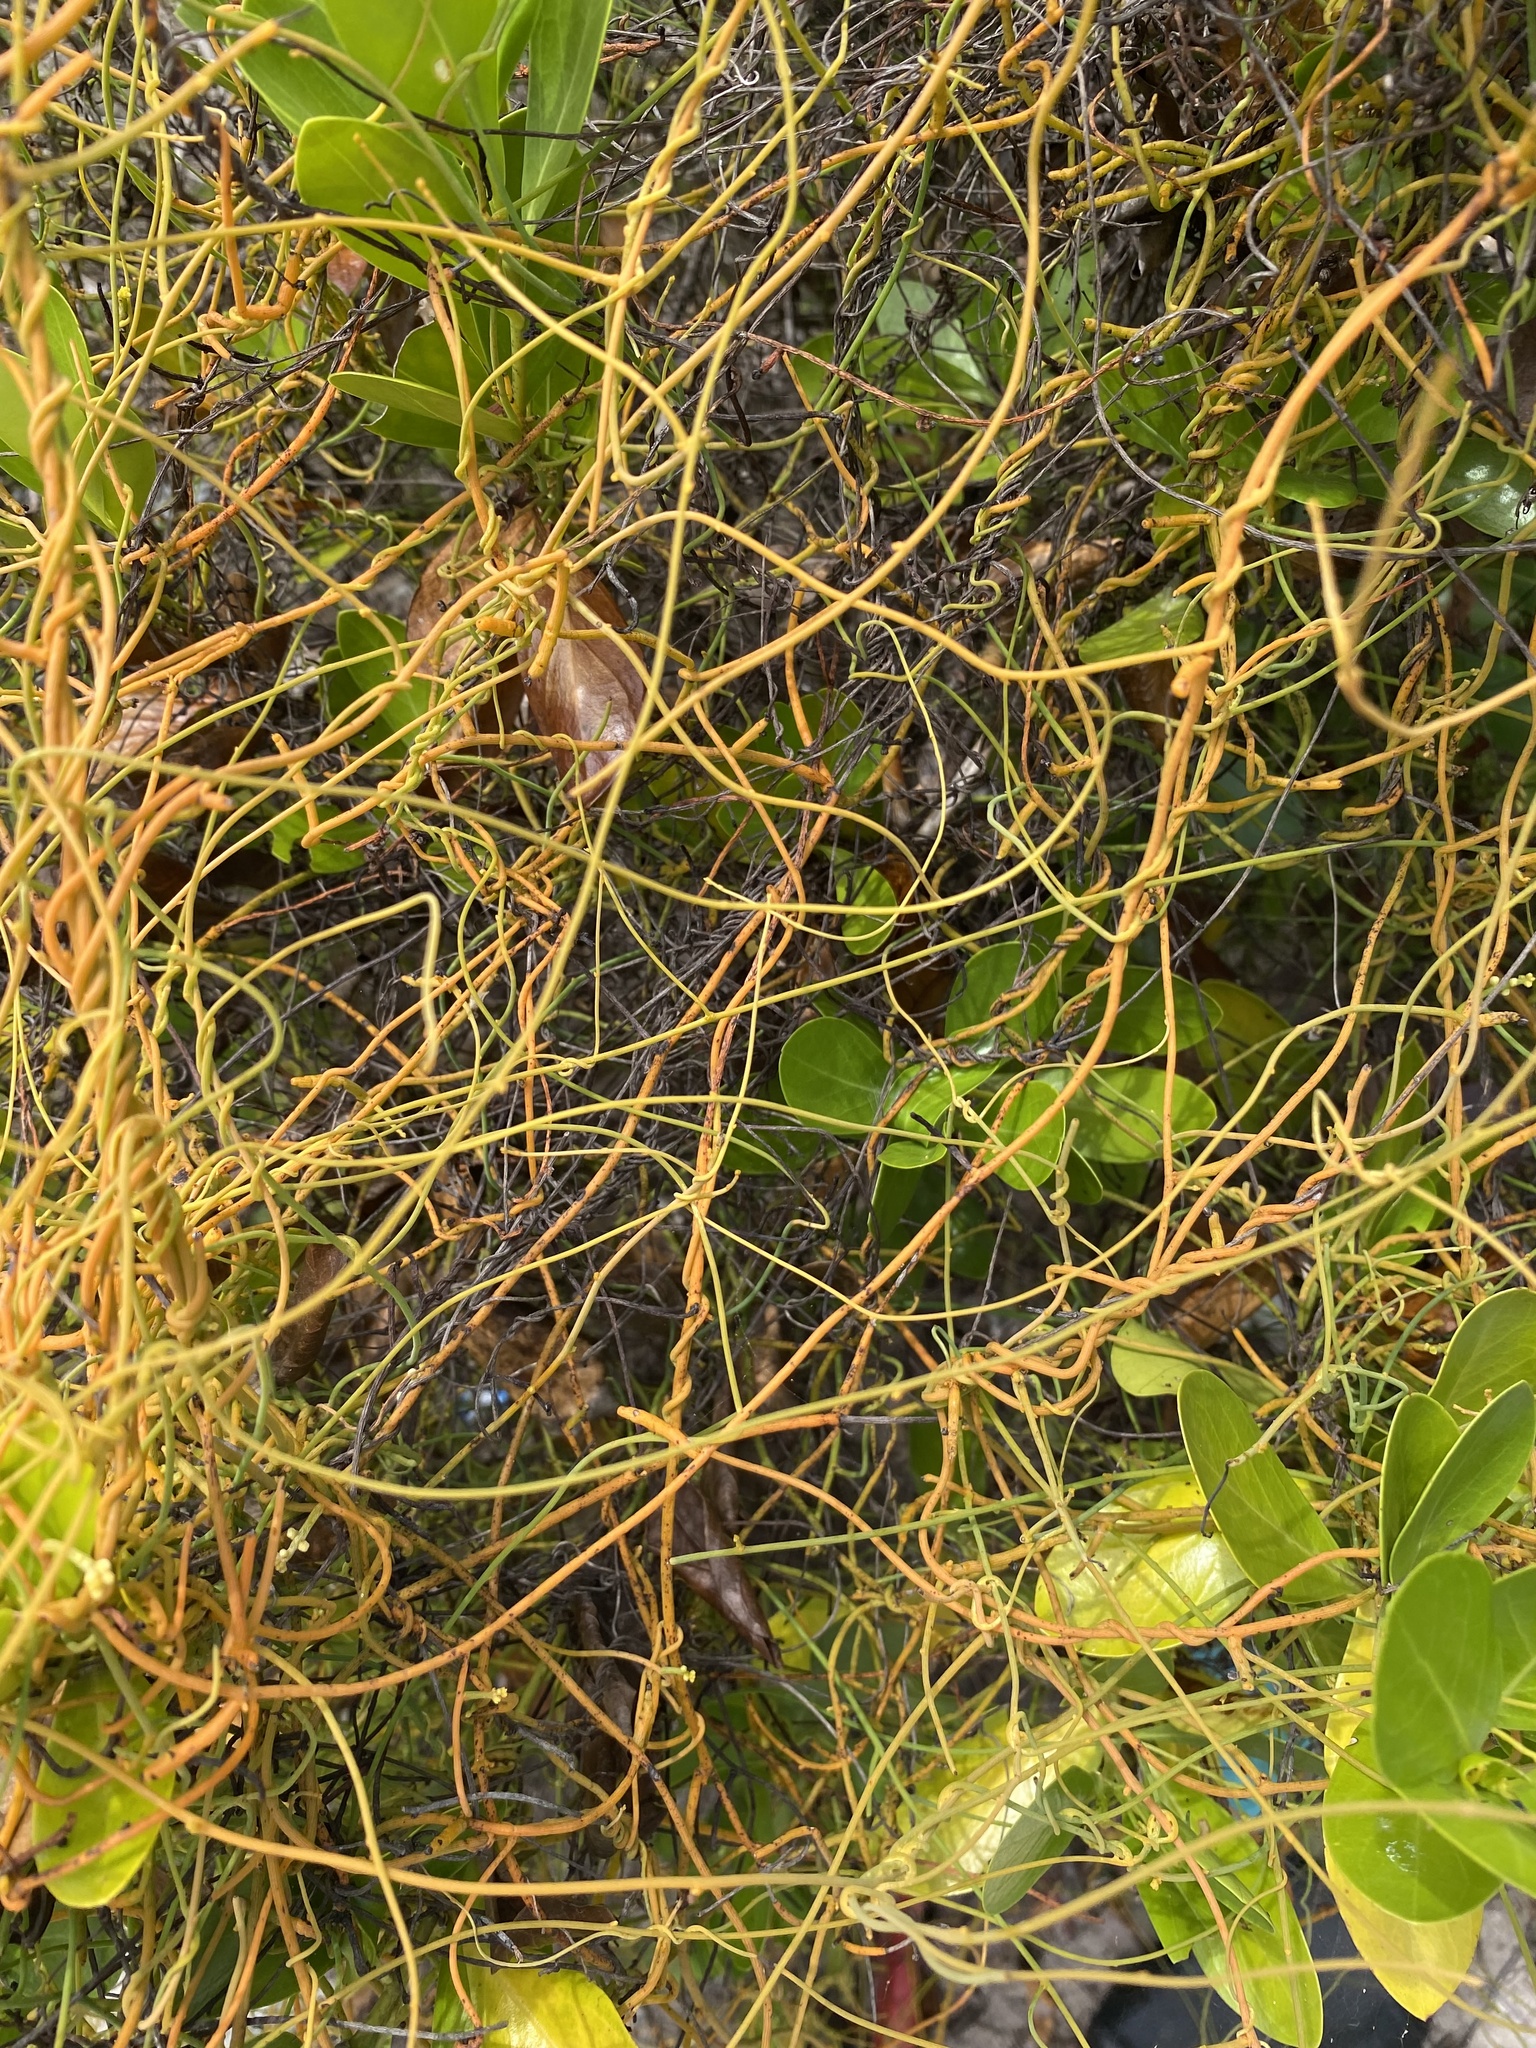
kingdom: Plantae
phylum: Tracheophyta
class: Magnoliopsida
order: Laurales
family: Lauraceae
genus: Cassytha
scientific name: Cassytha filiformis
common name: Dodder-laurel
